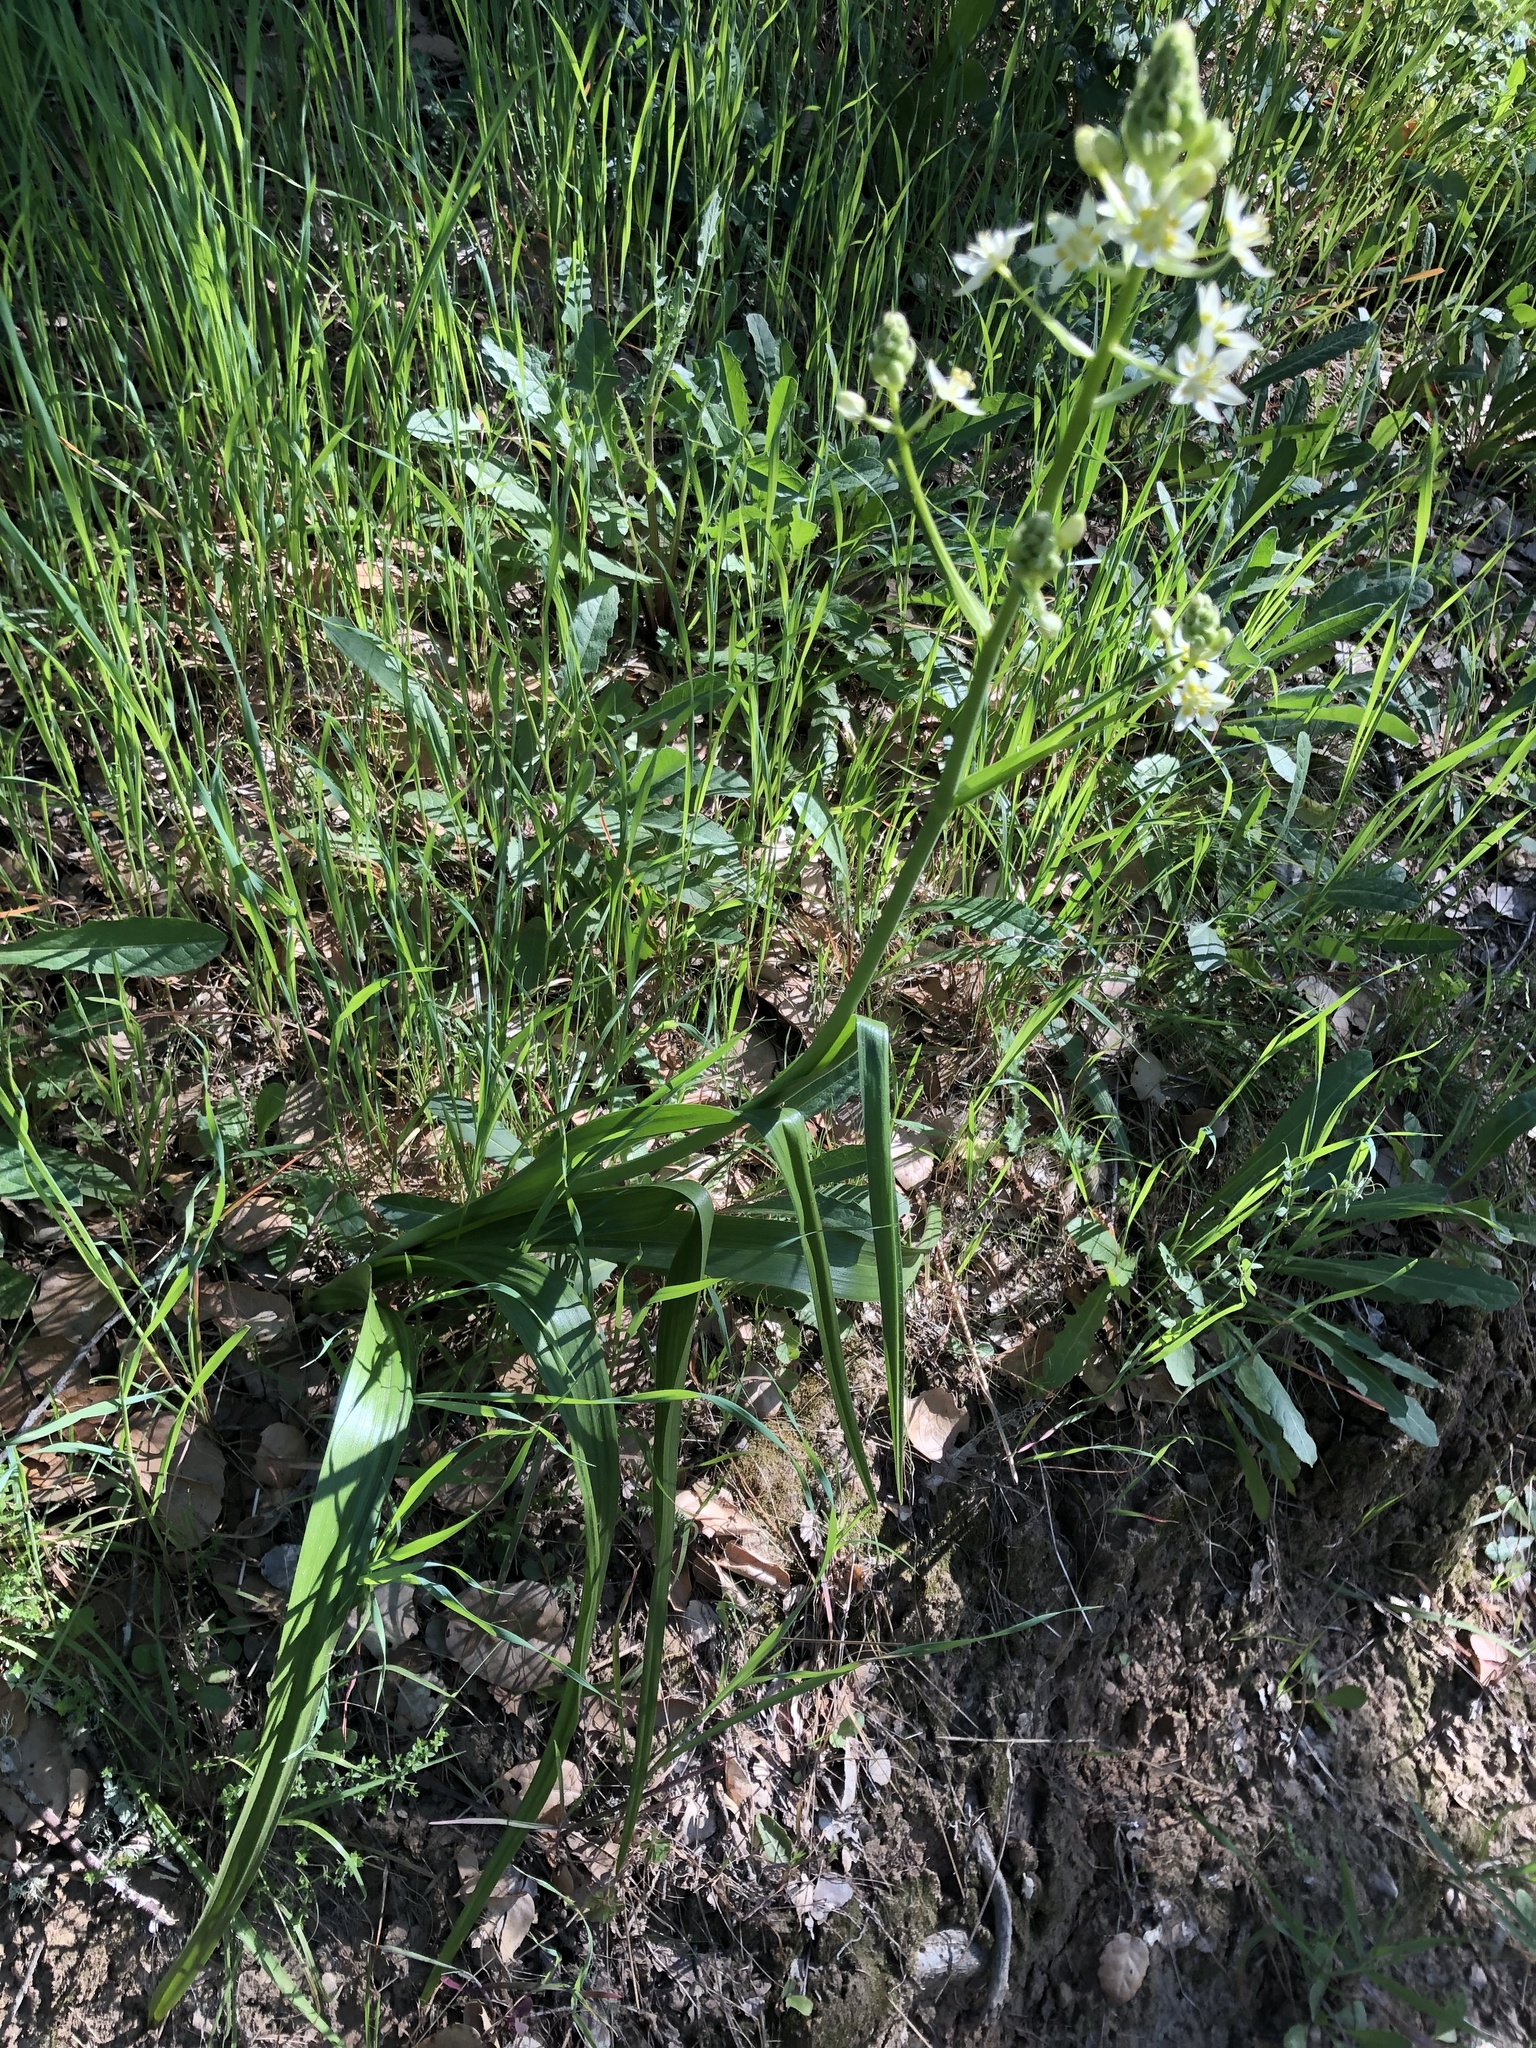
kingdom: Plantae
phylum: Tracheophyta
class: Liliopsida
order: Asparagales
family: Asparagaceae
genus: Chlorogalum
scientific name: Chlorogalum pomeridianum
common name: Amole
